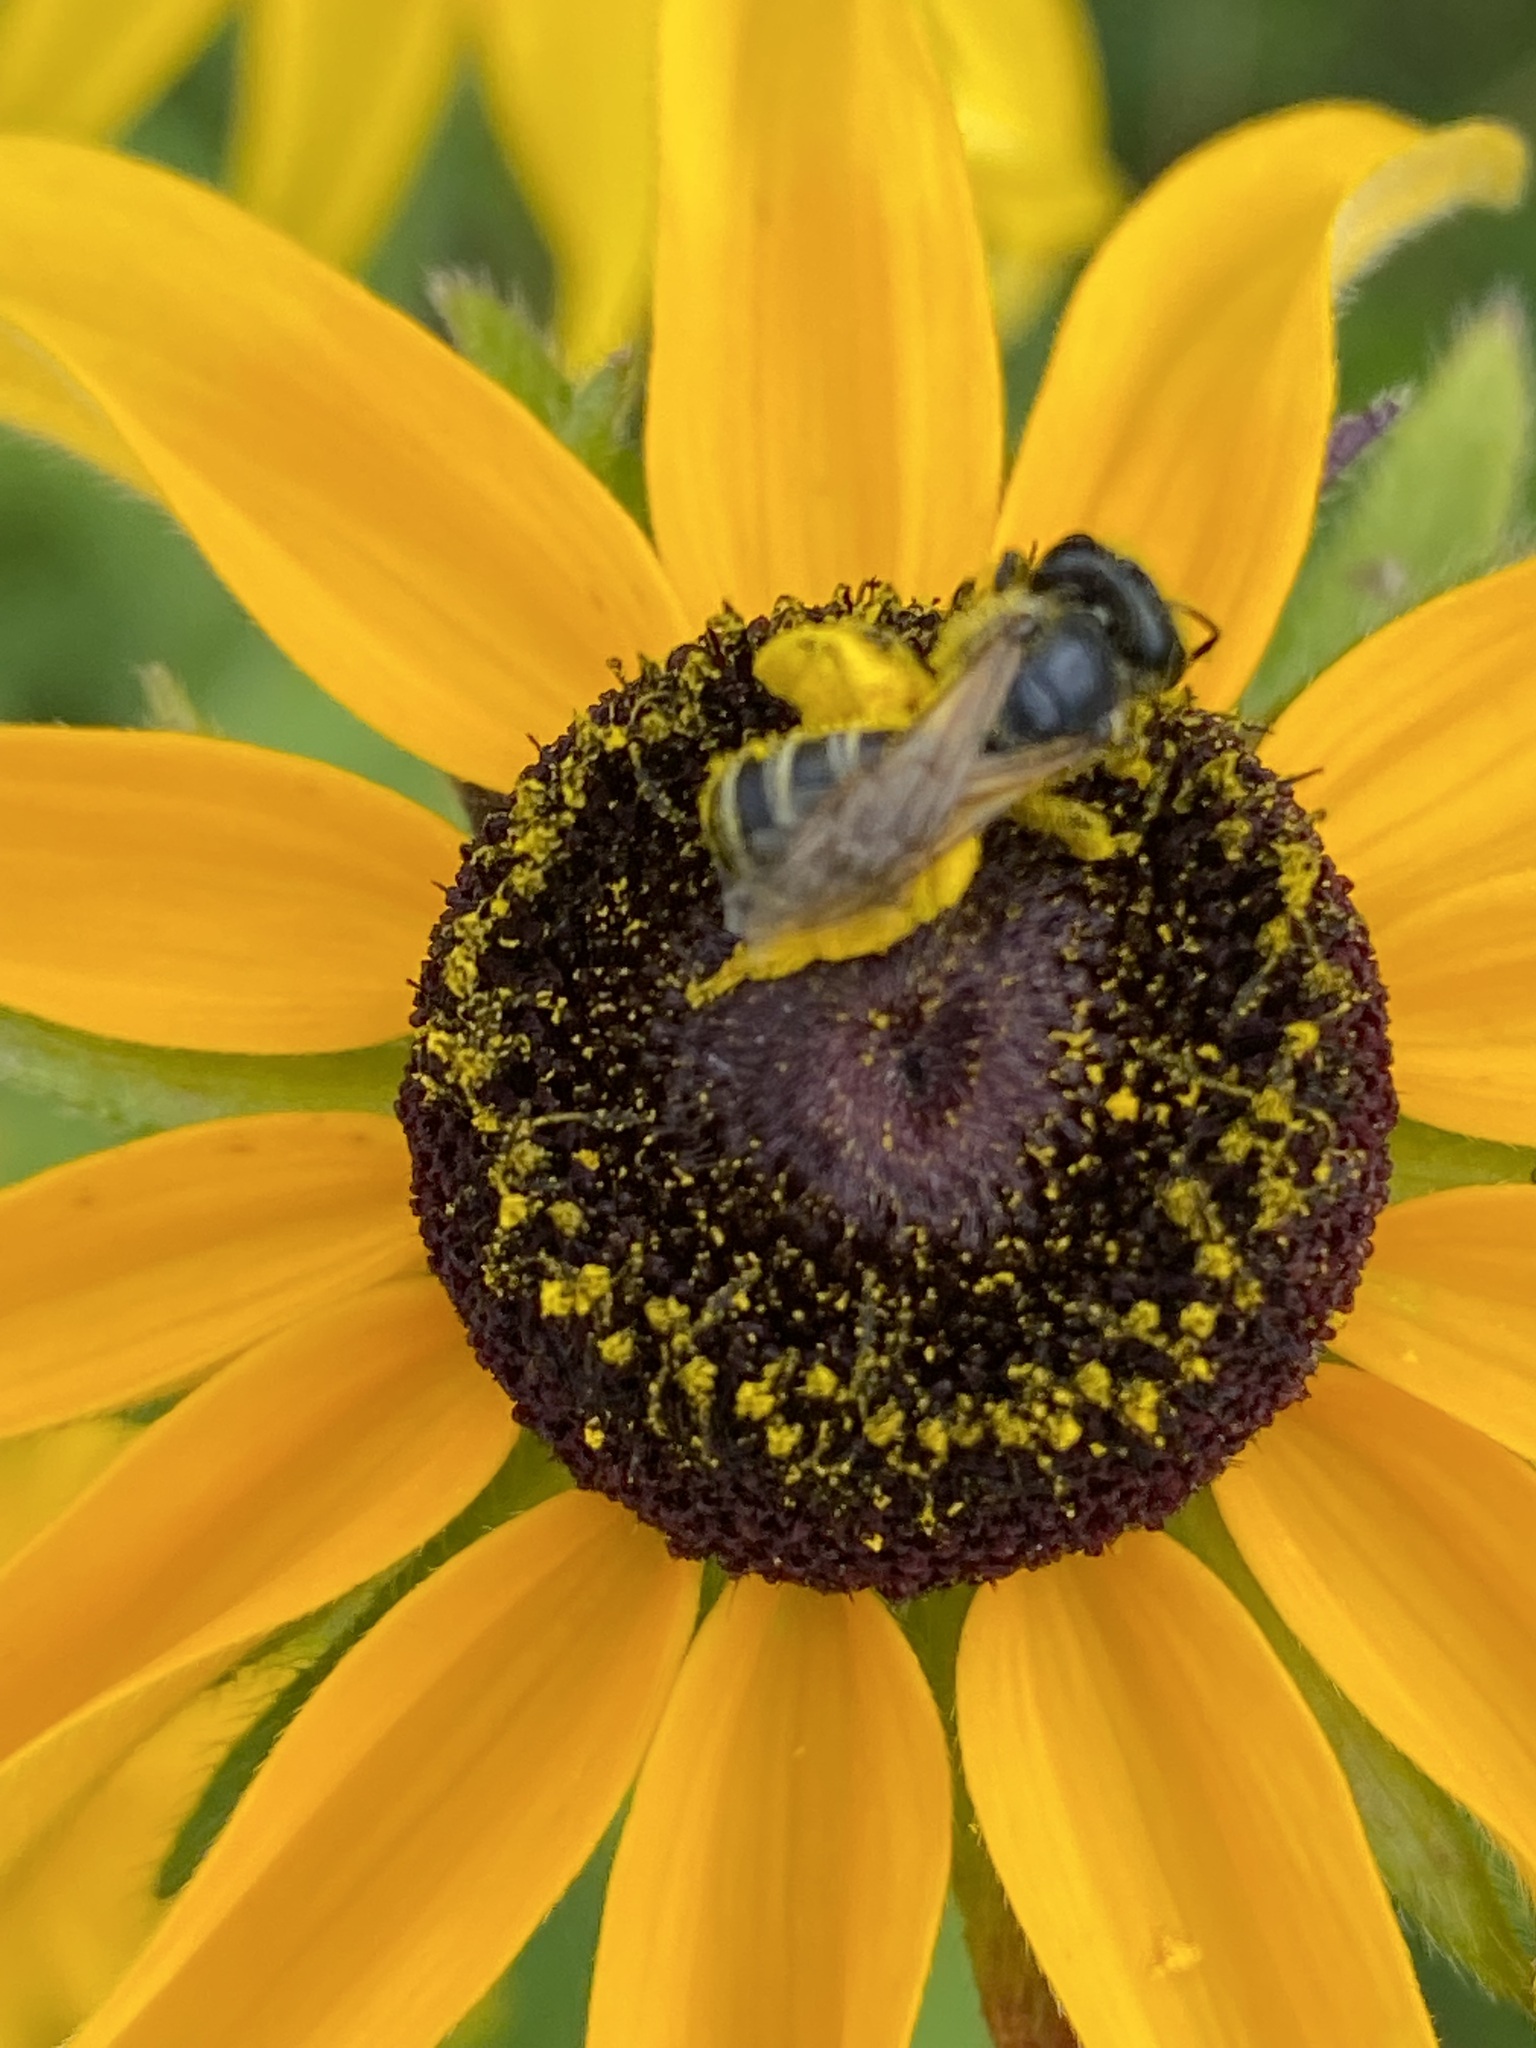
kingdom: Animalia
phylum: Arthropoda
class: Insecta
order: Hymenoptera
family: Halictidae
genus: Halictus
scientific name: Halictus ligatus
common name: Ligated furrow bee
